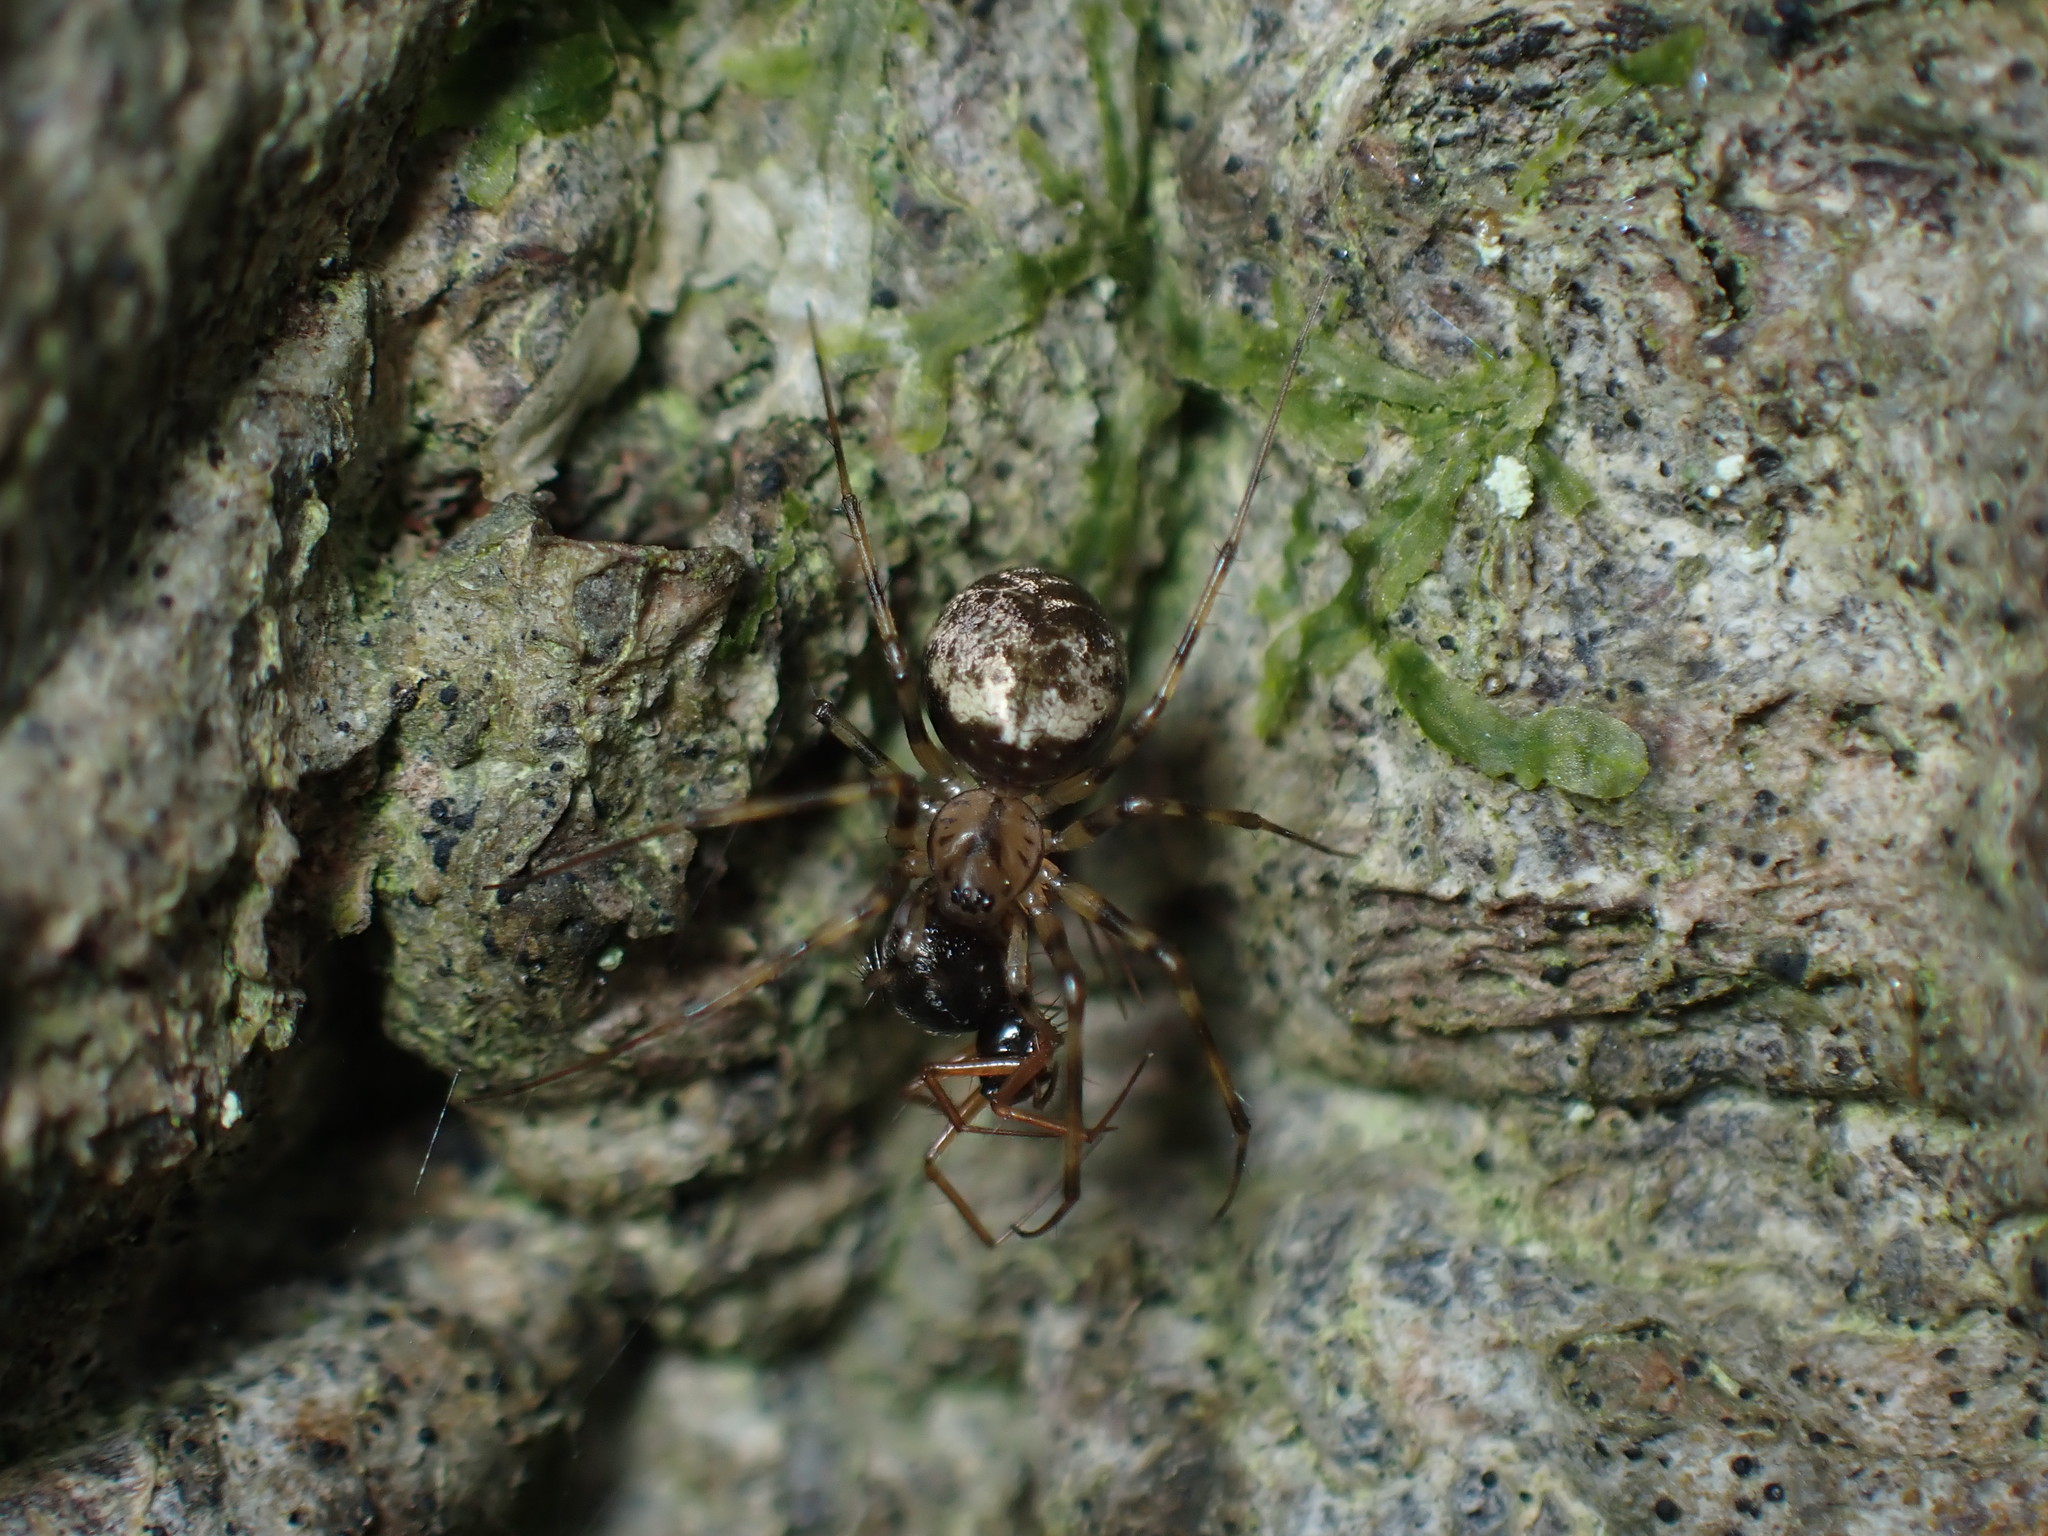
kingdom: Animalia
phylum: Arthropoda
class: Arachnida
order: Araneae
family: Linyphiidae
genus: Drapetisca
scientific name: Drapetisca socialis
